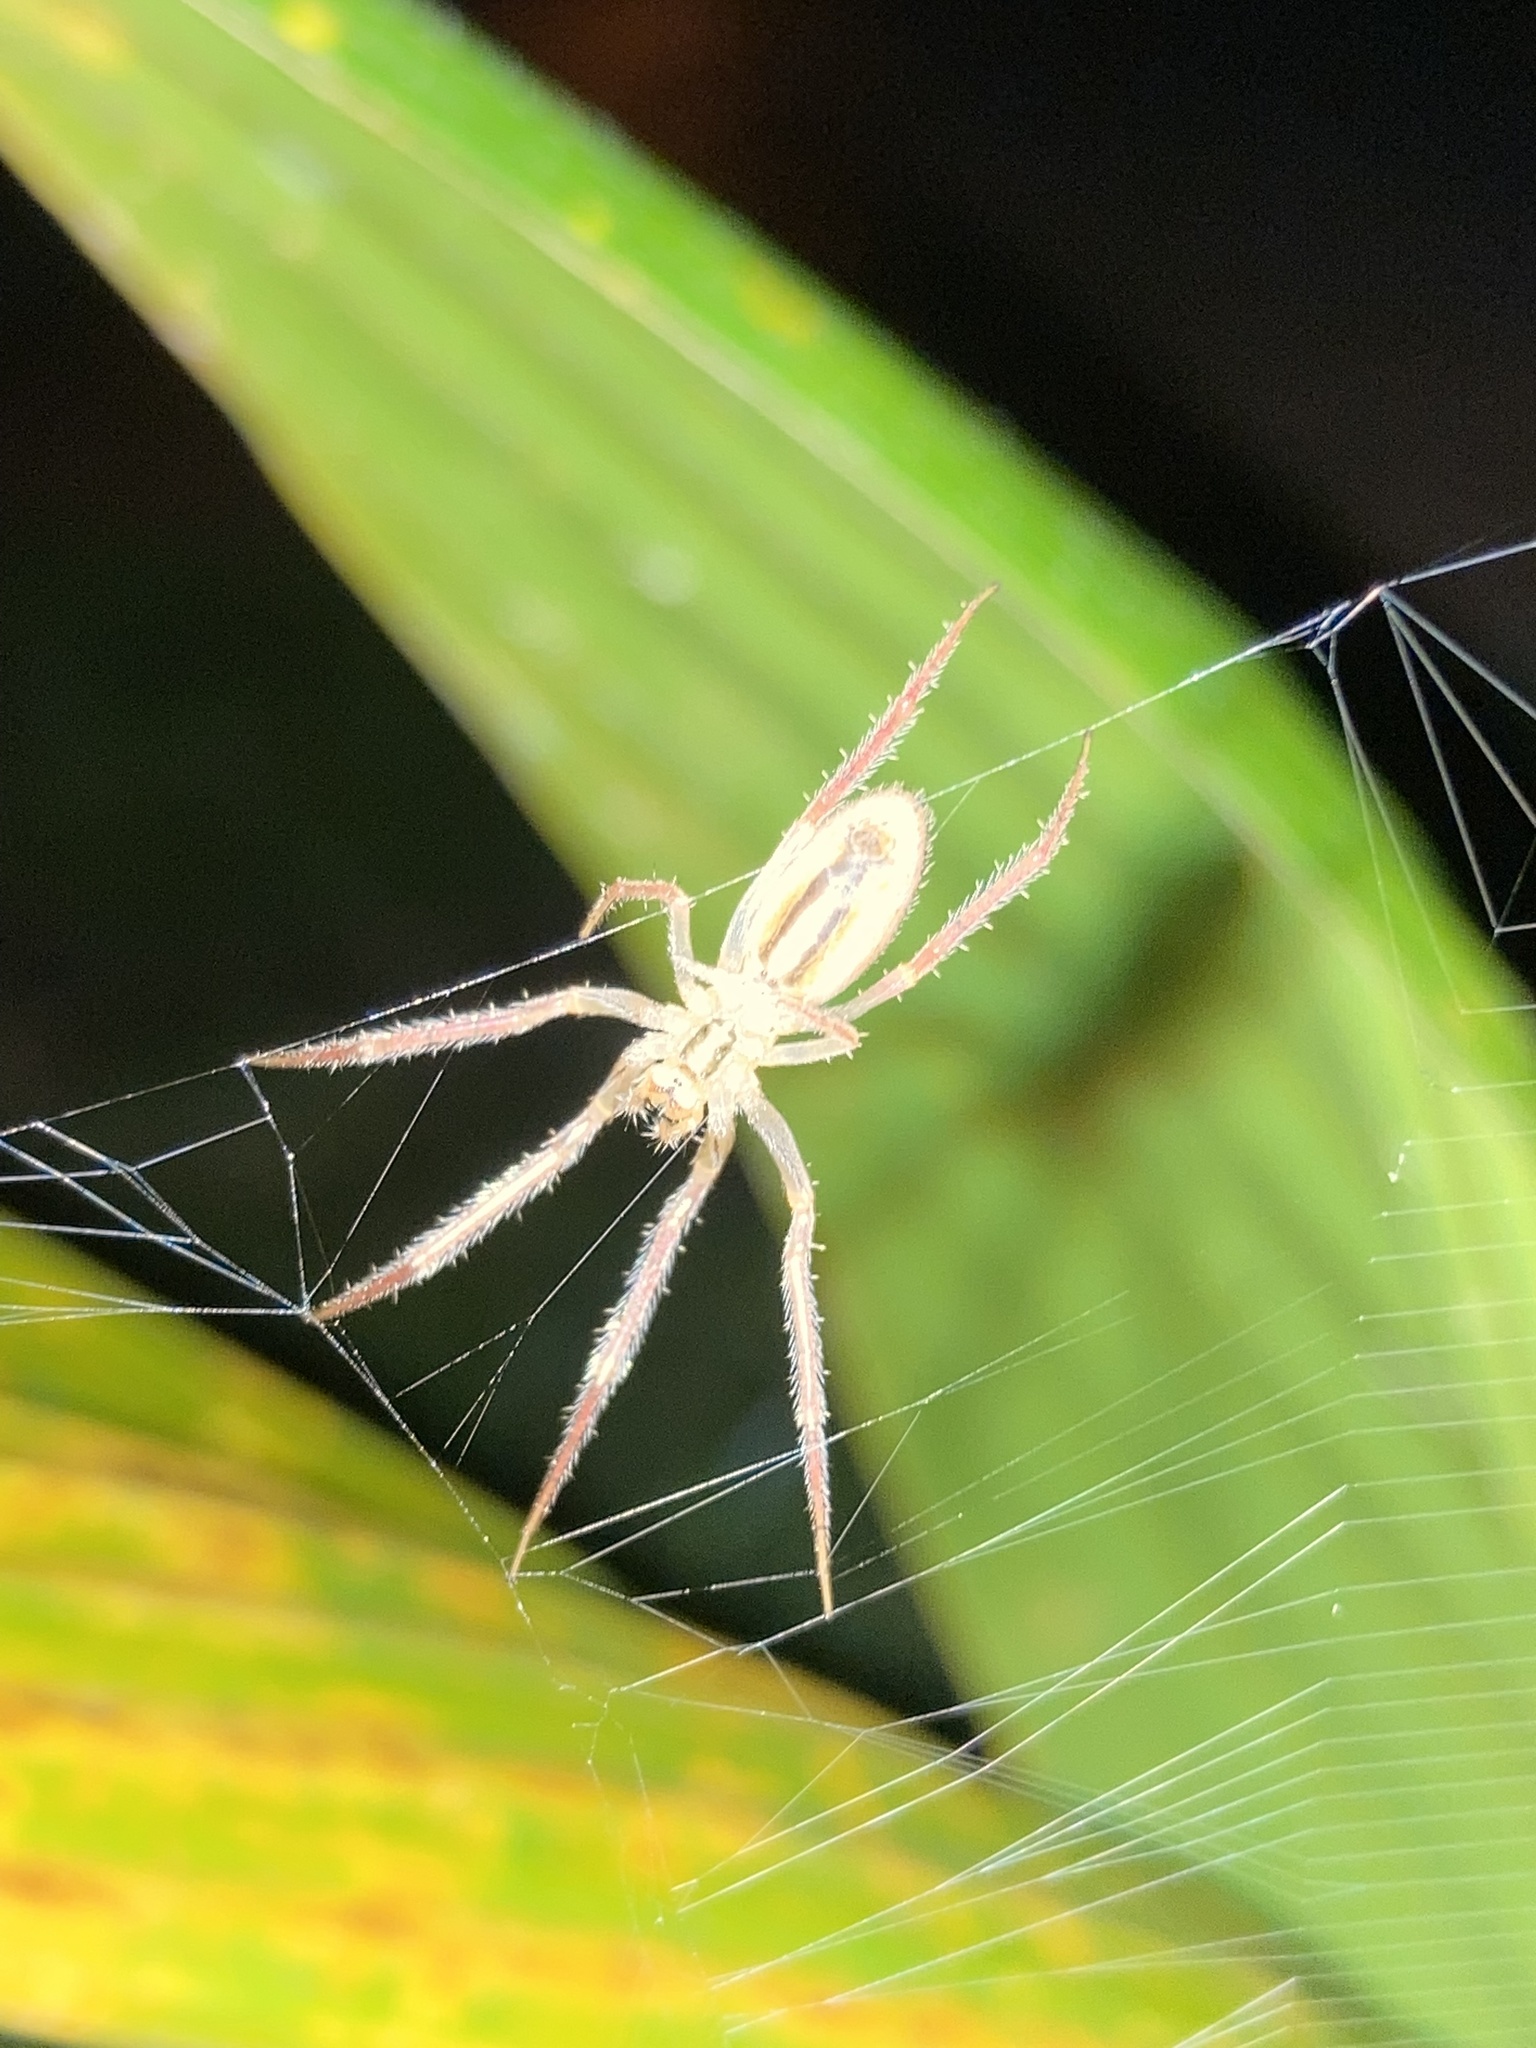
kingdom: Animalia
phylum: Arthropoda
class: Arachnida
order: Araneae
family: Araneidae
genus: Larinia
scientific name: Larinia directa
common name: Orb weavers
